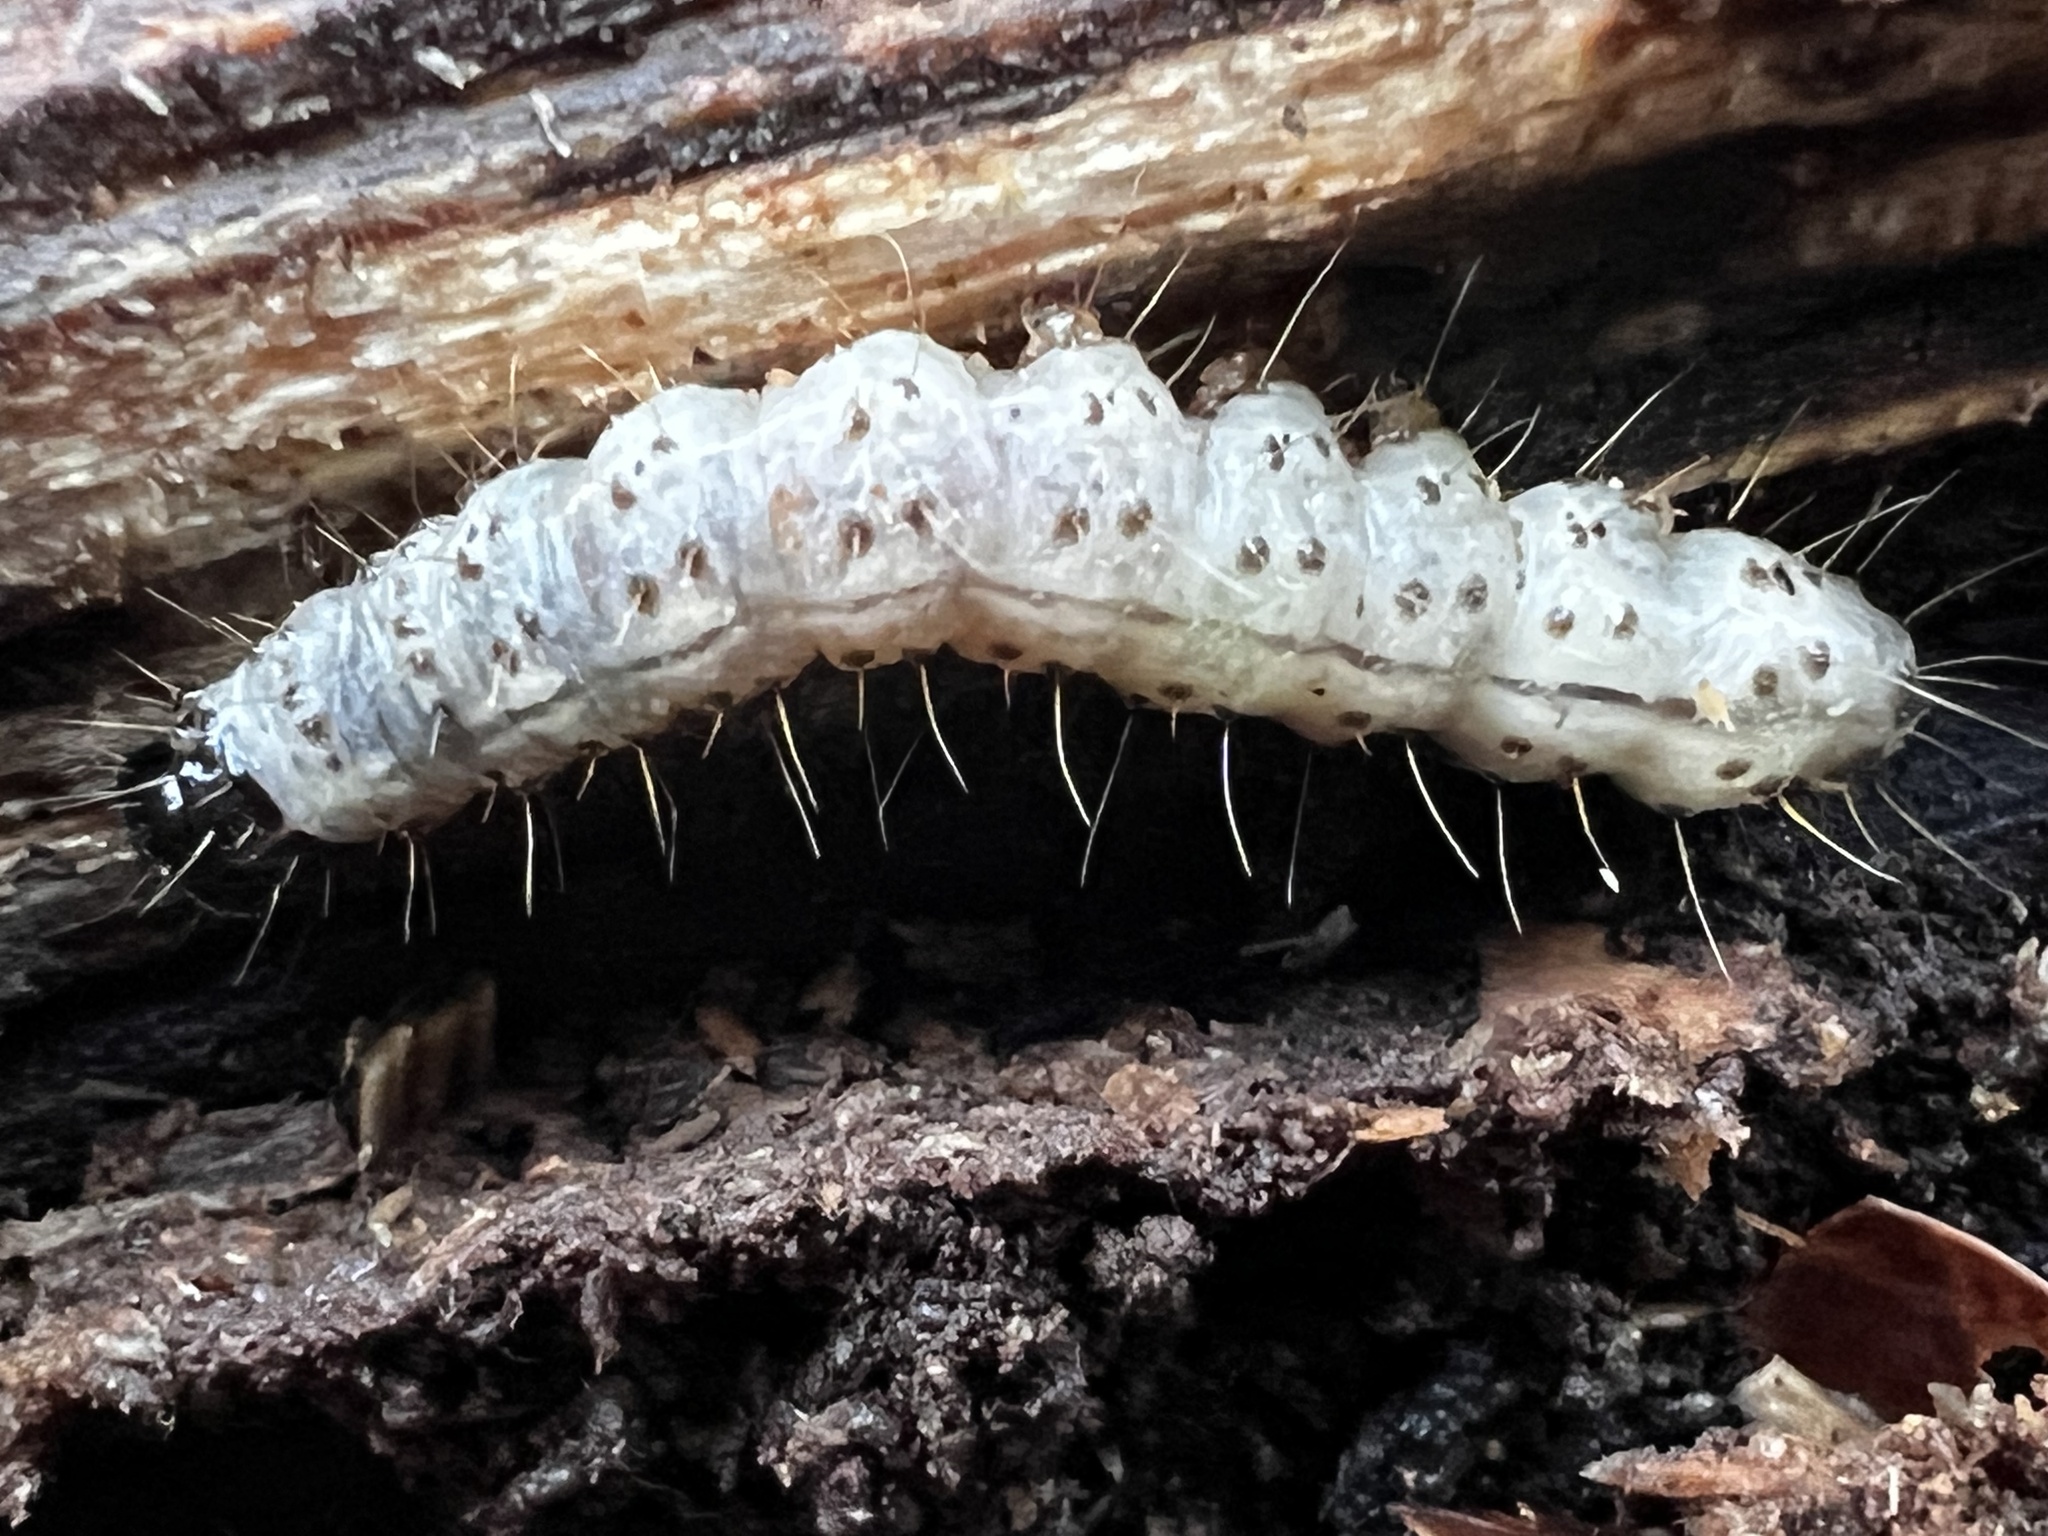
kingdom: Animalia
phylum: Arthropoda
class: Insecta
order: Lepidoptera
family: Erebidae
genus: Scolecocampa
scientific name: Scolecocampa liburna
